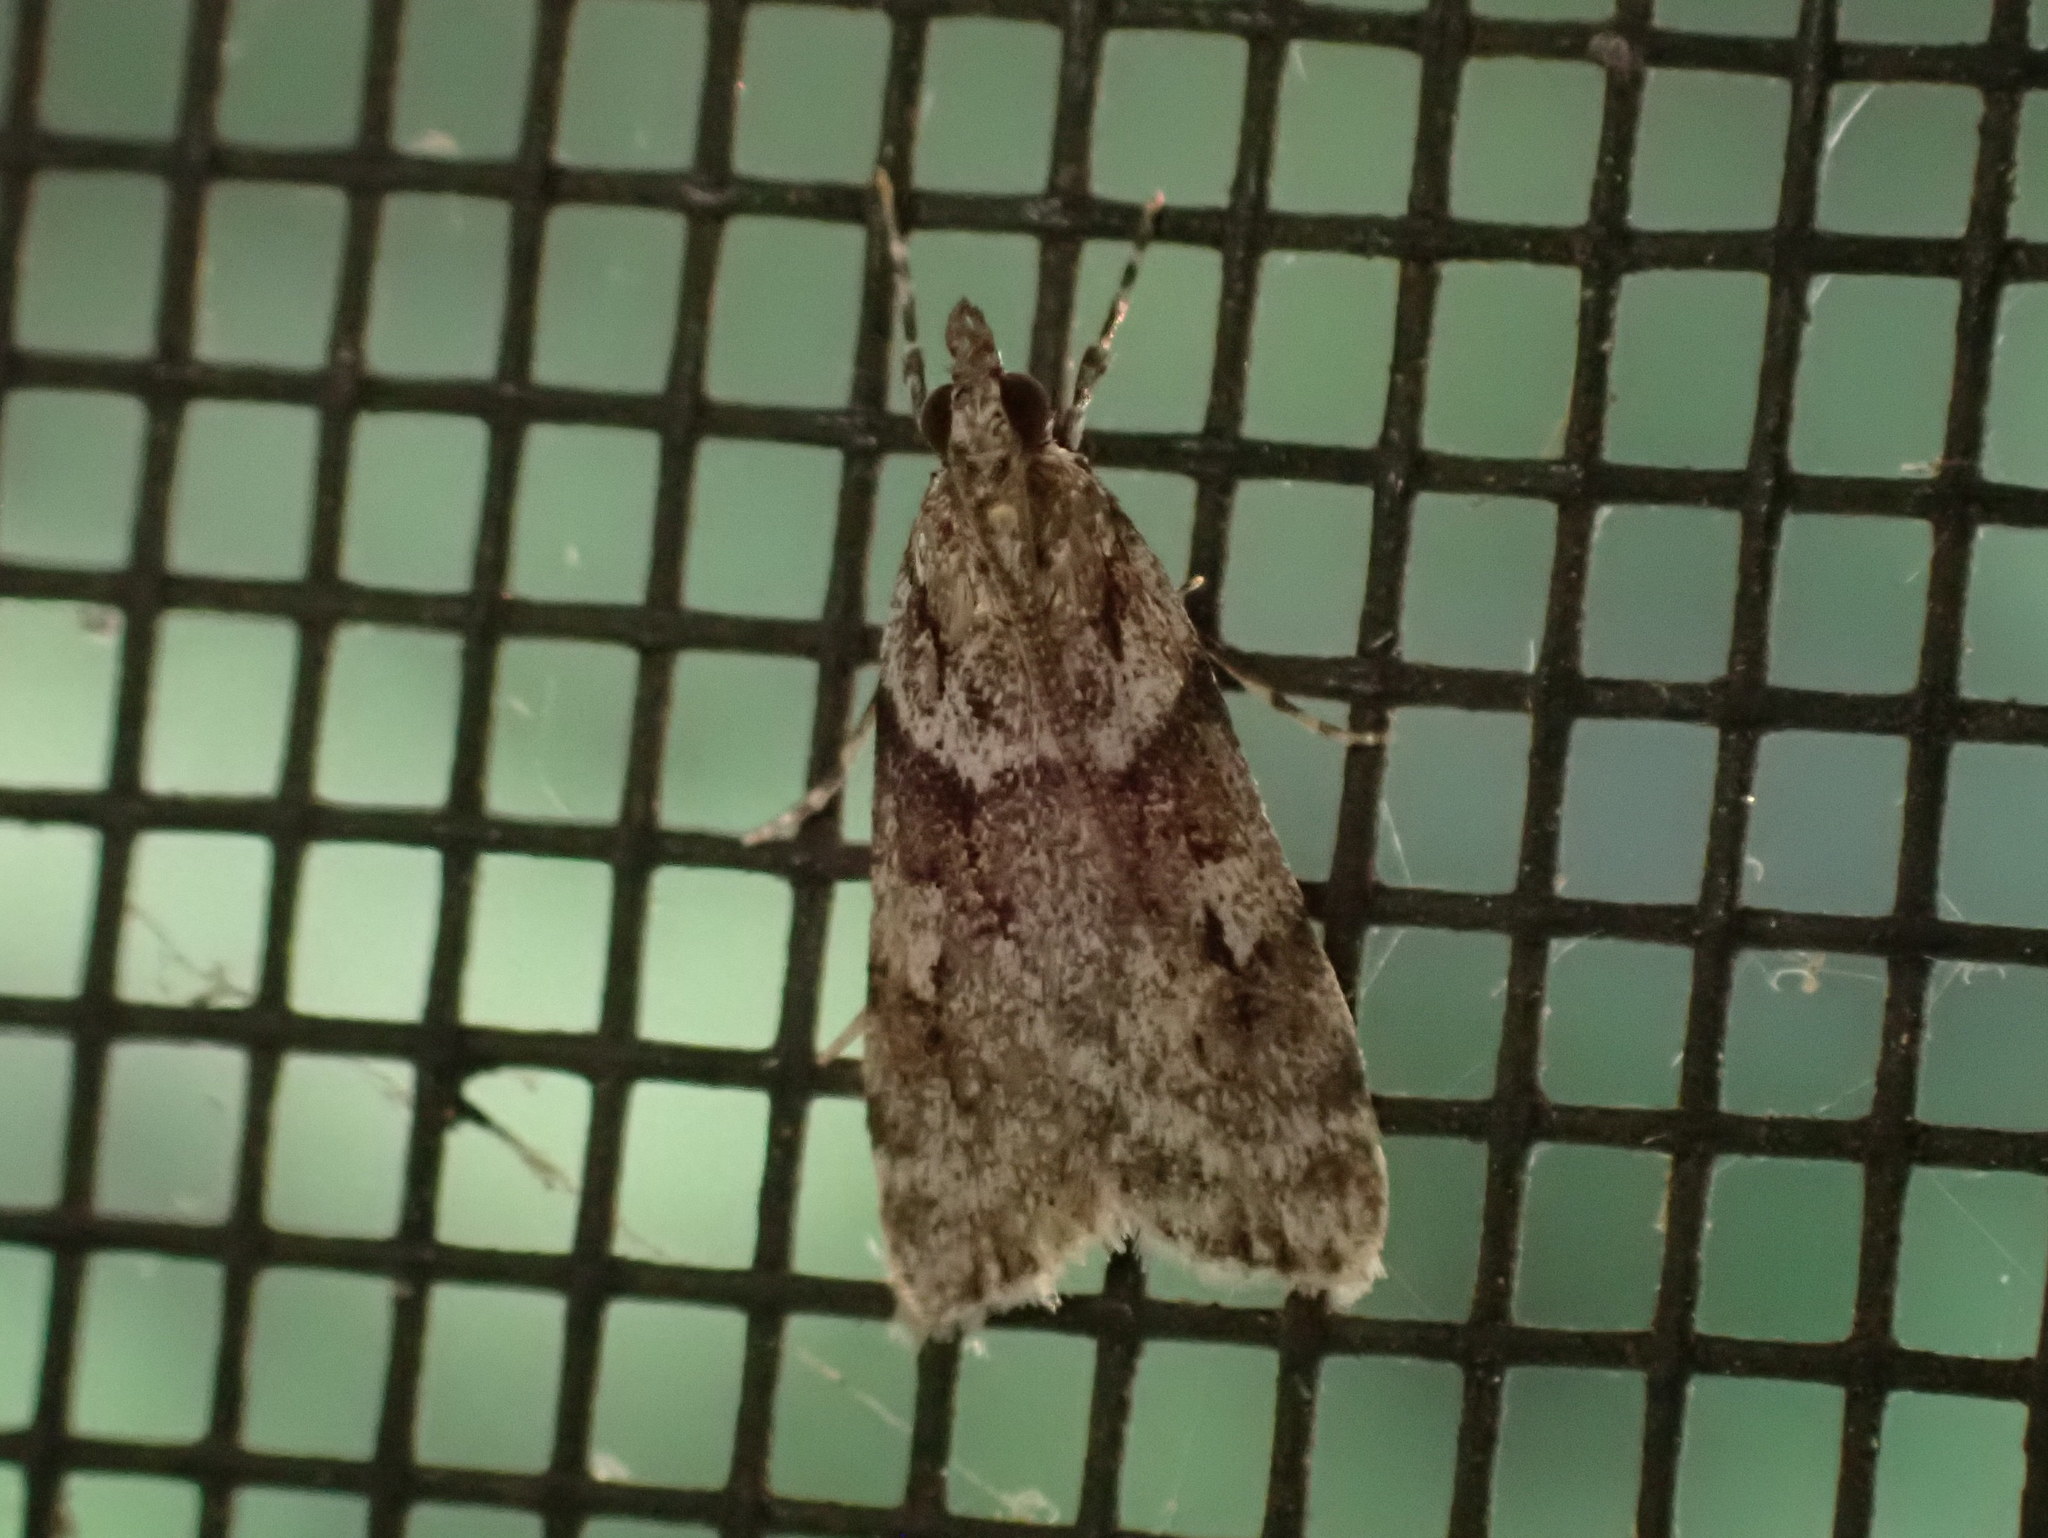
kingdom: Animalia
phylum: Arthropoda
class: Insecta
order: Lepidoptera
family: Crambidae
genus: Scoparia
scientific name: Scoparia biplagialis
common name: Double-striped scoparia moth
